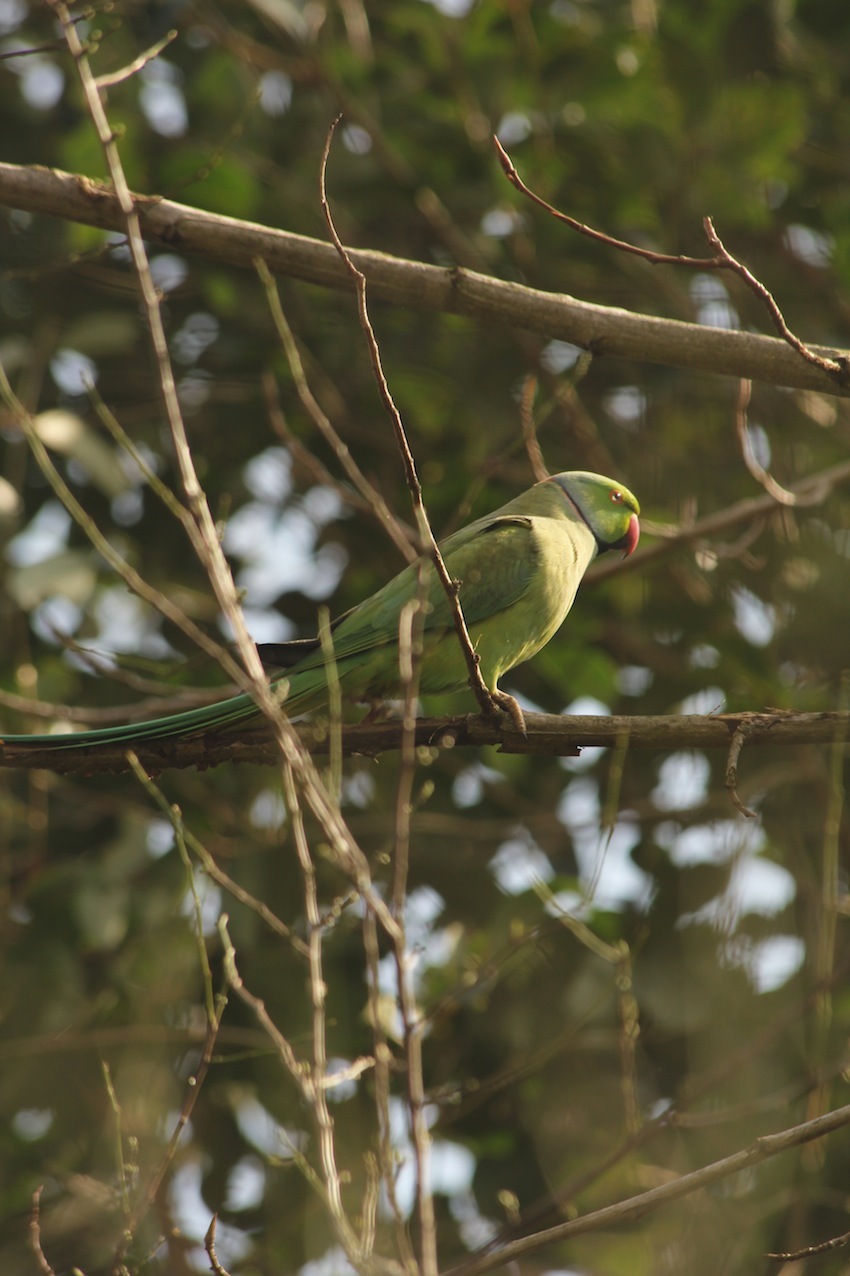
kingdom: Animalia
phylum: Chordata
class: Aves
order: Psittaciformes
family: Psittacidae
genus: Psittacula
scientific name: Psittacula krameri
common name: Rose-ringed parakeet
